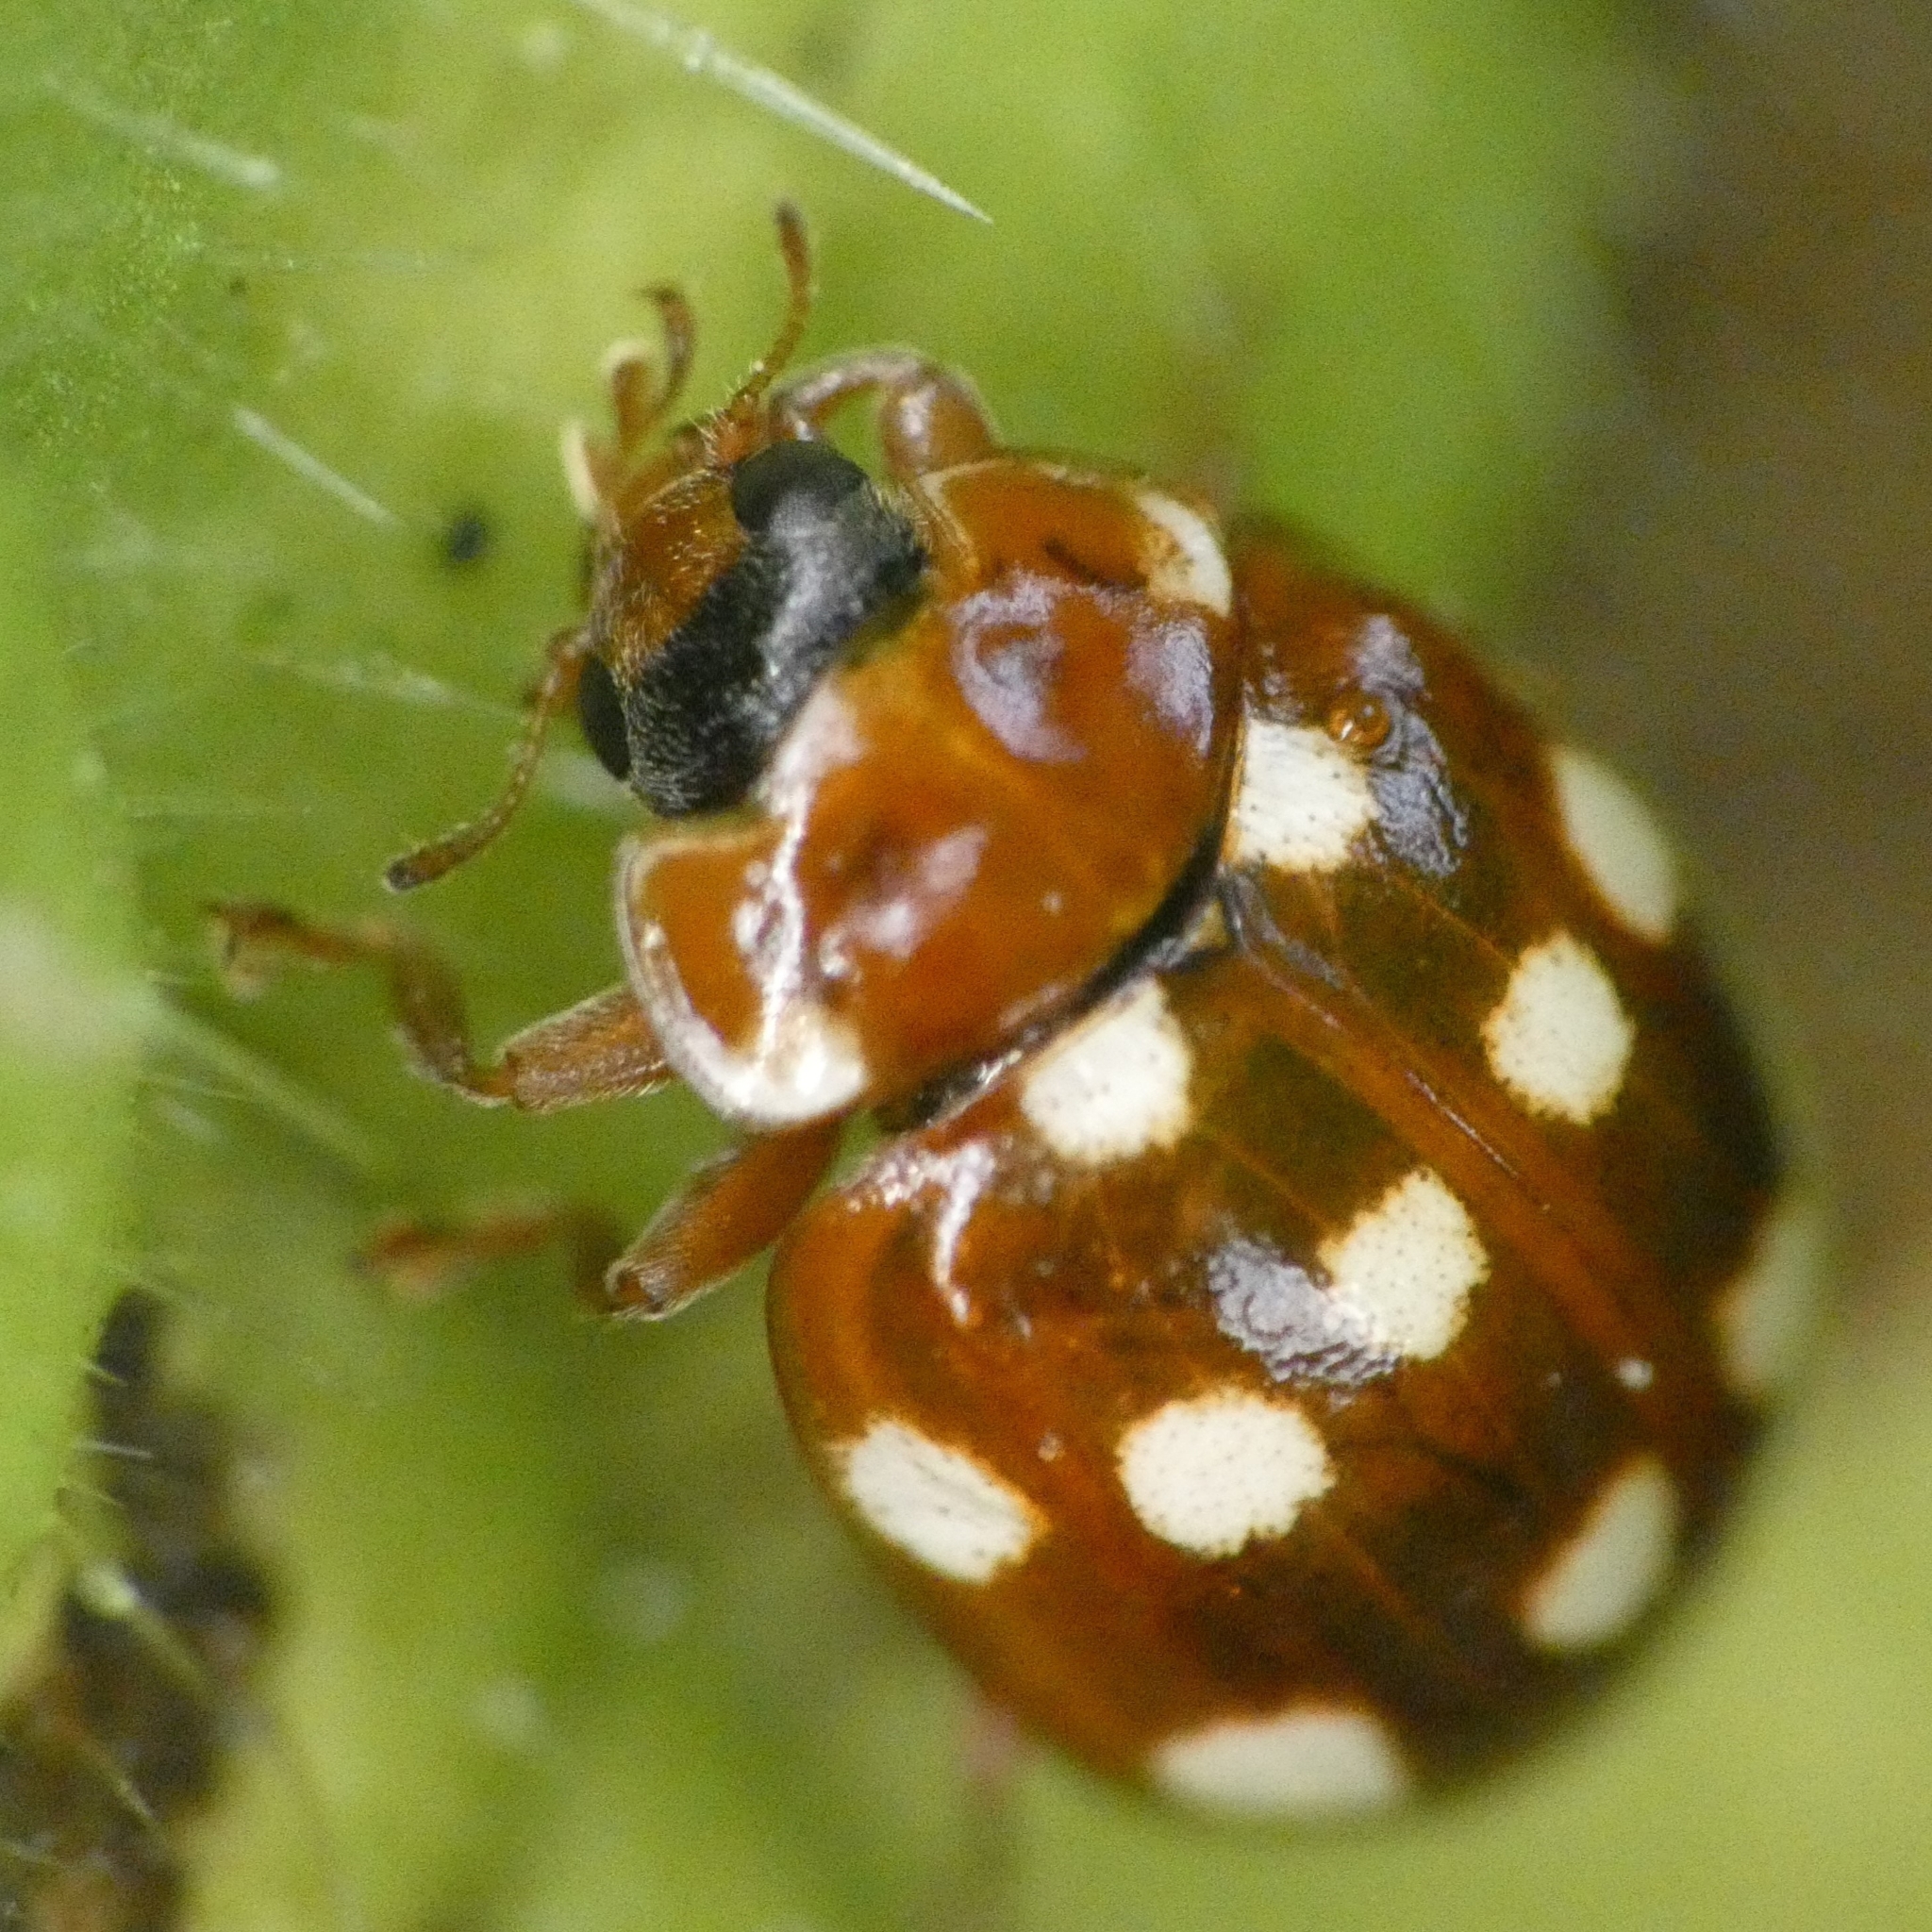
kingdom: Animalia
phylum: Arthropoda
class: Insecta
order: Coleoptera
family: Coccinellidae
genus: Calvia
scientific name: Calvia quatuordecimguttata
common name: Cream-spot ladybird
